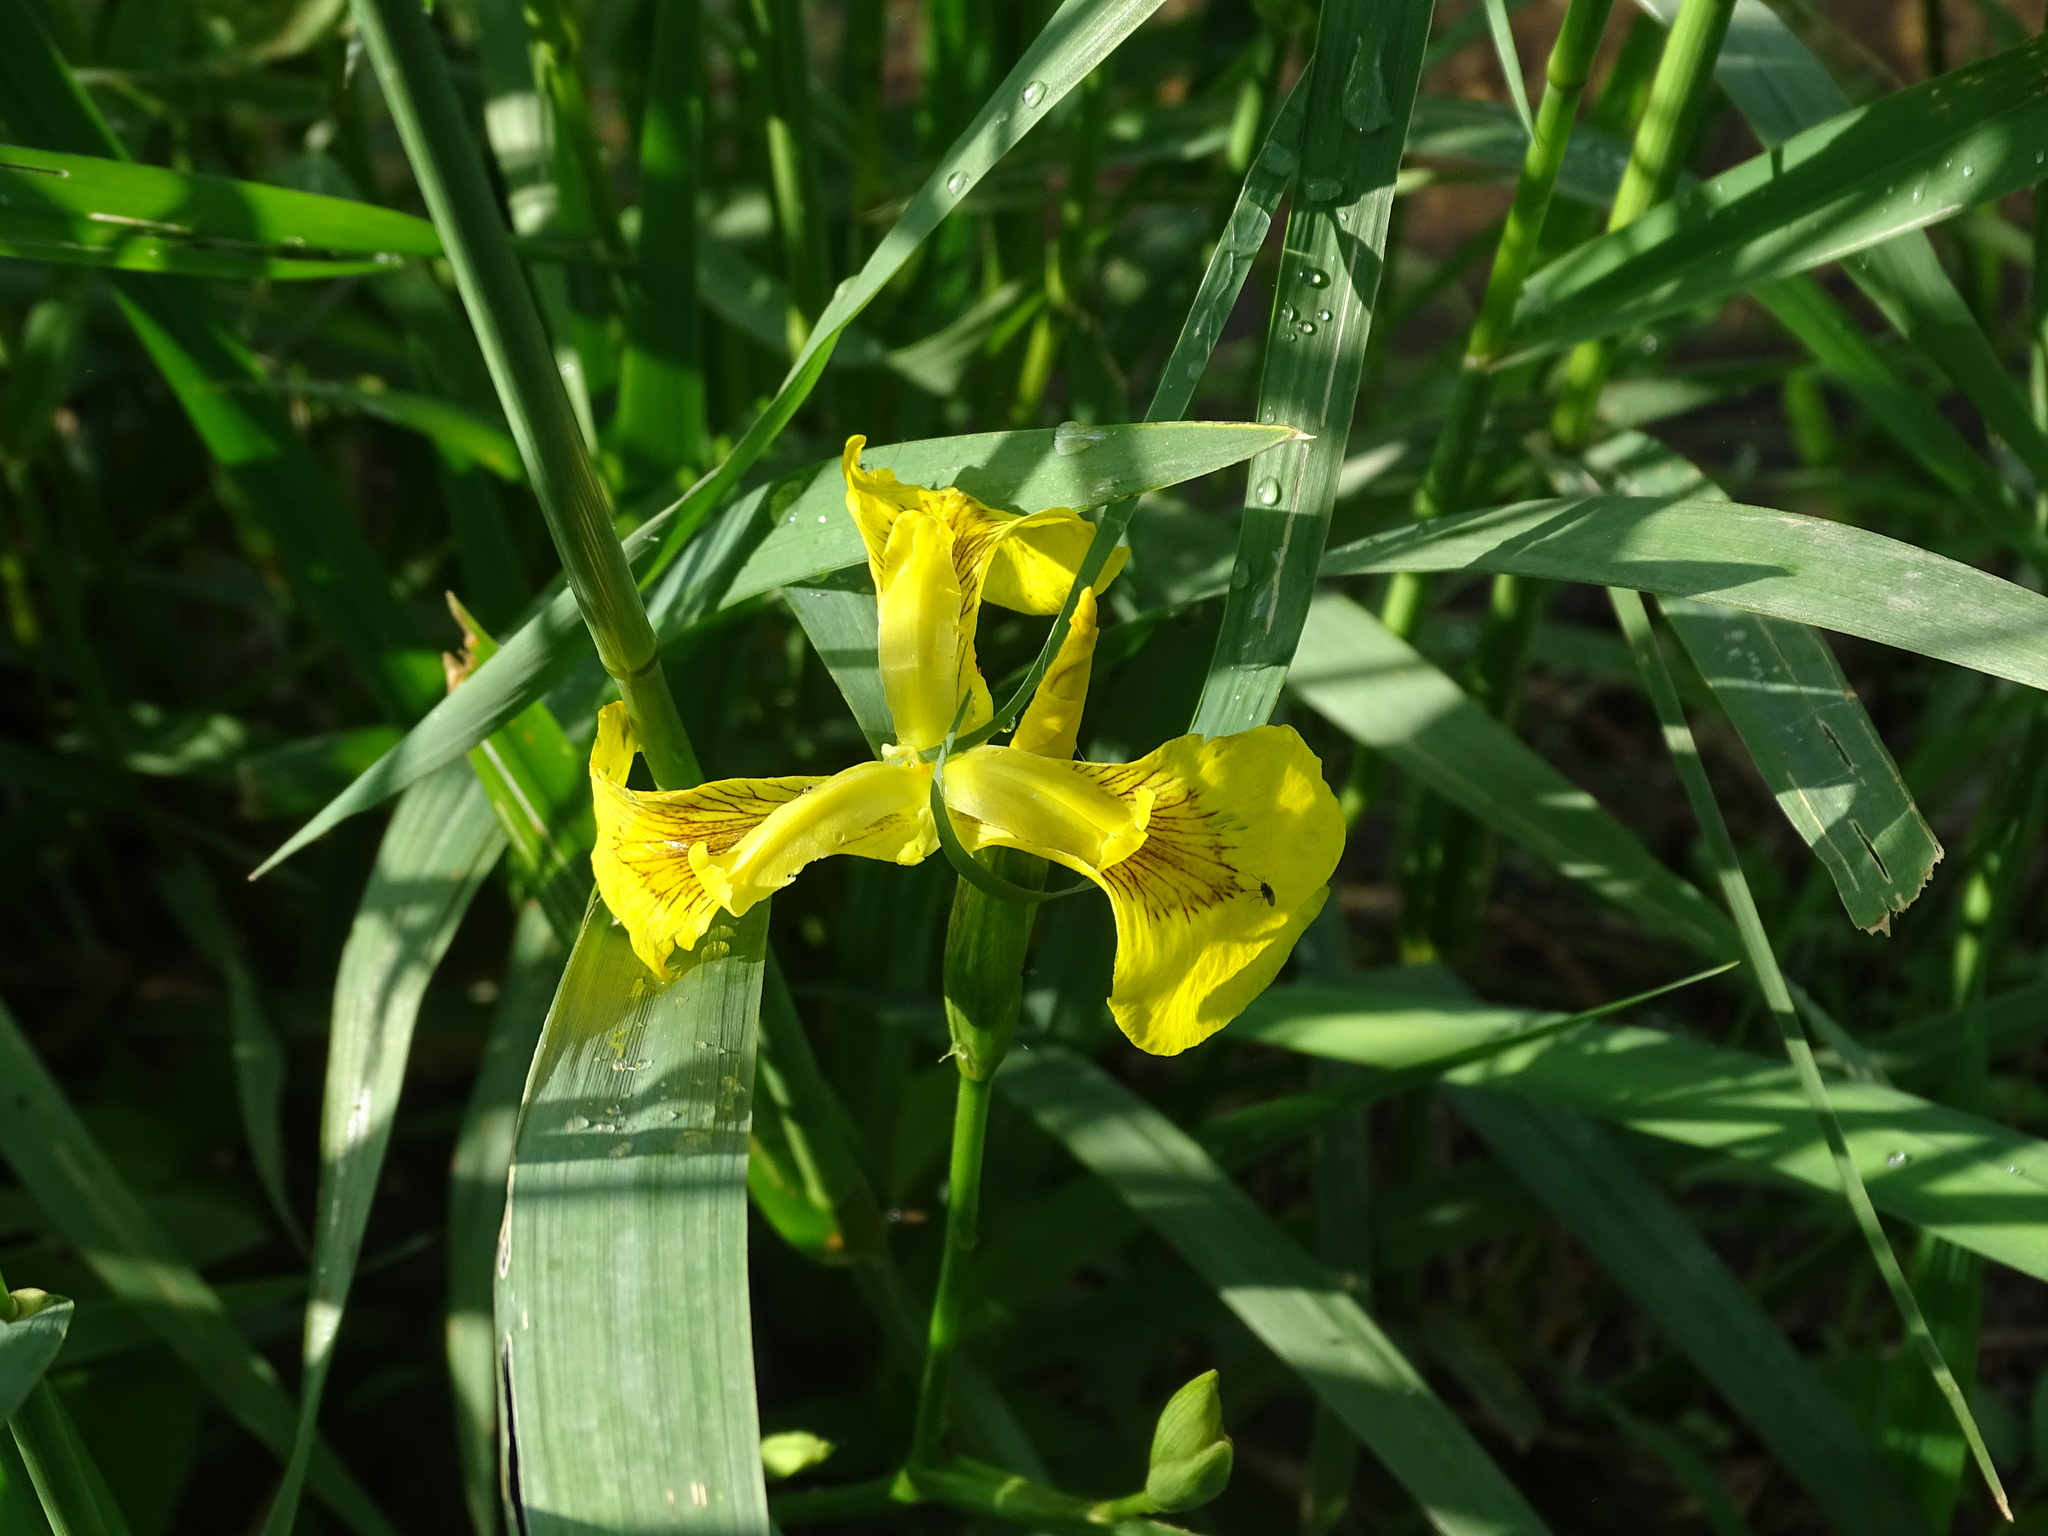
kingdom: Plantae
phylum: Tracheophyta
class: Liliopsida
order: Asparagales
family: Iridaceae
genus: Iris
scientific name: Iris pseudacorus
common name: Yellow flag
